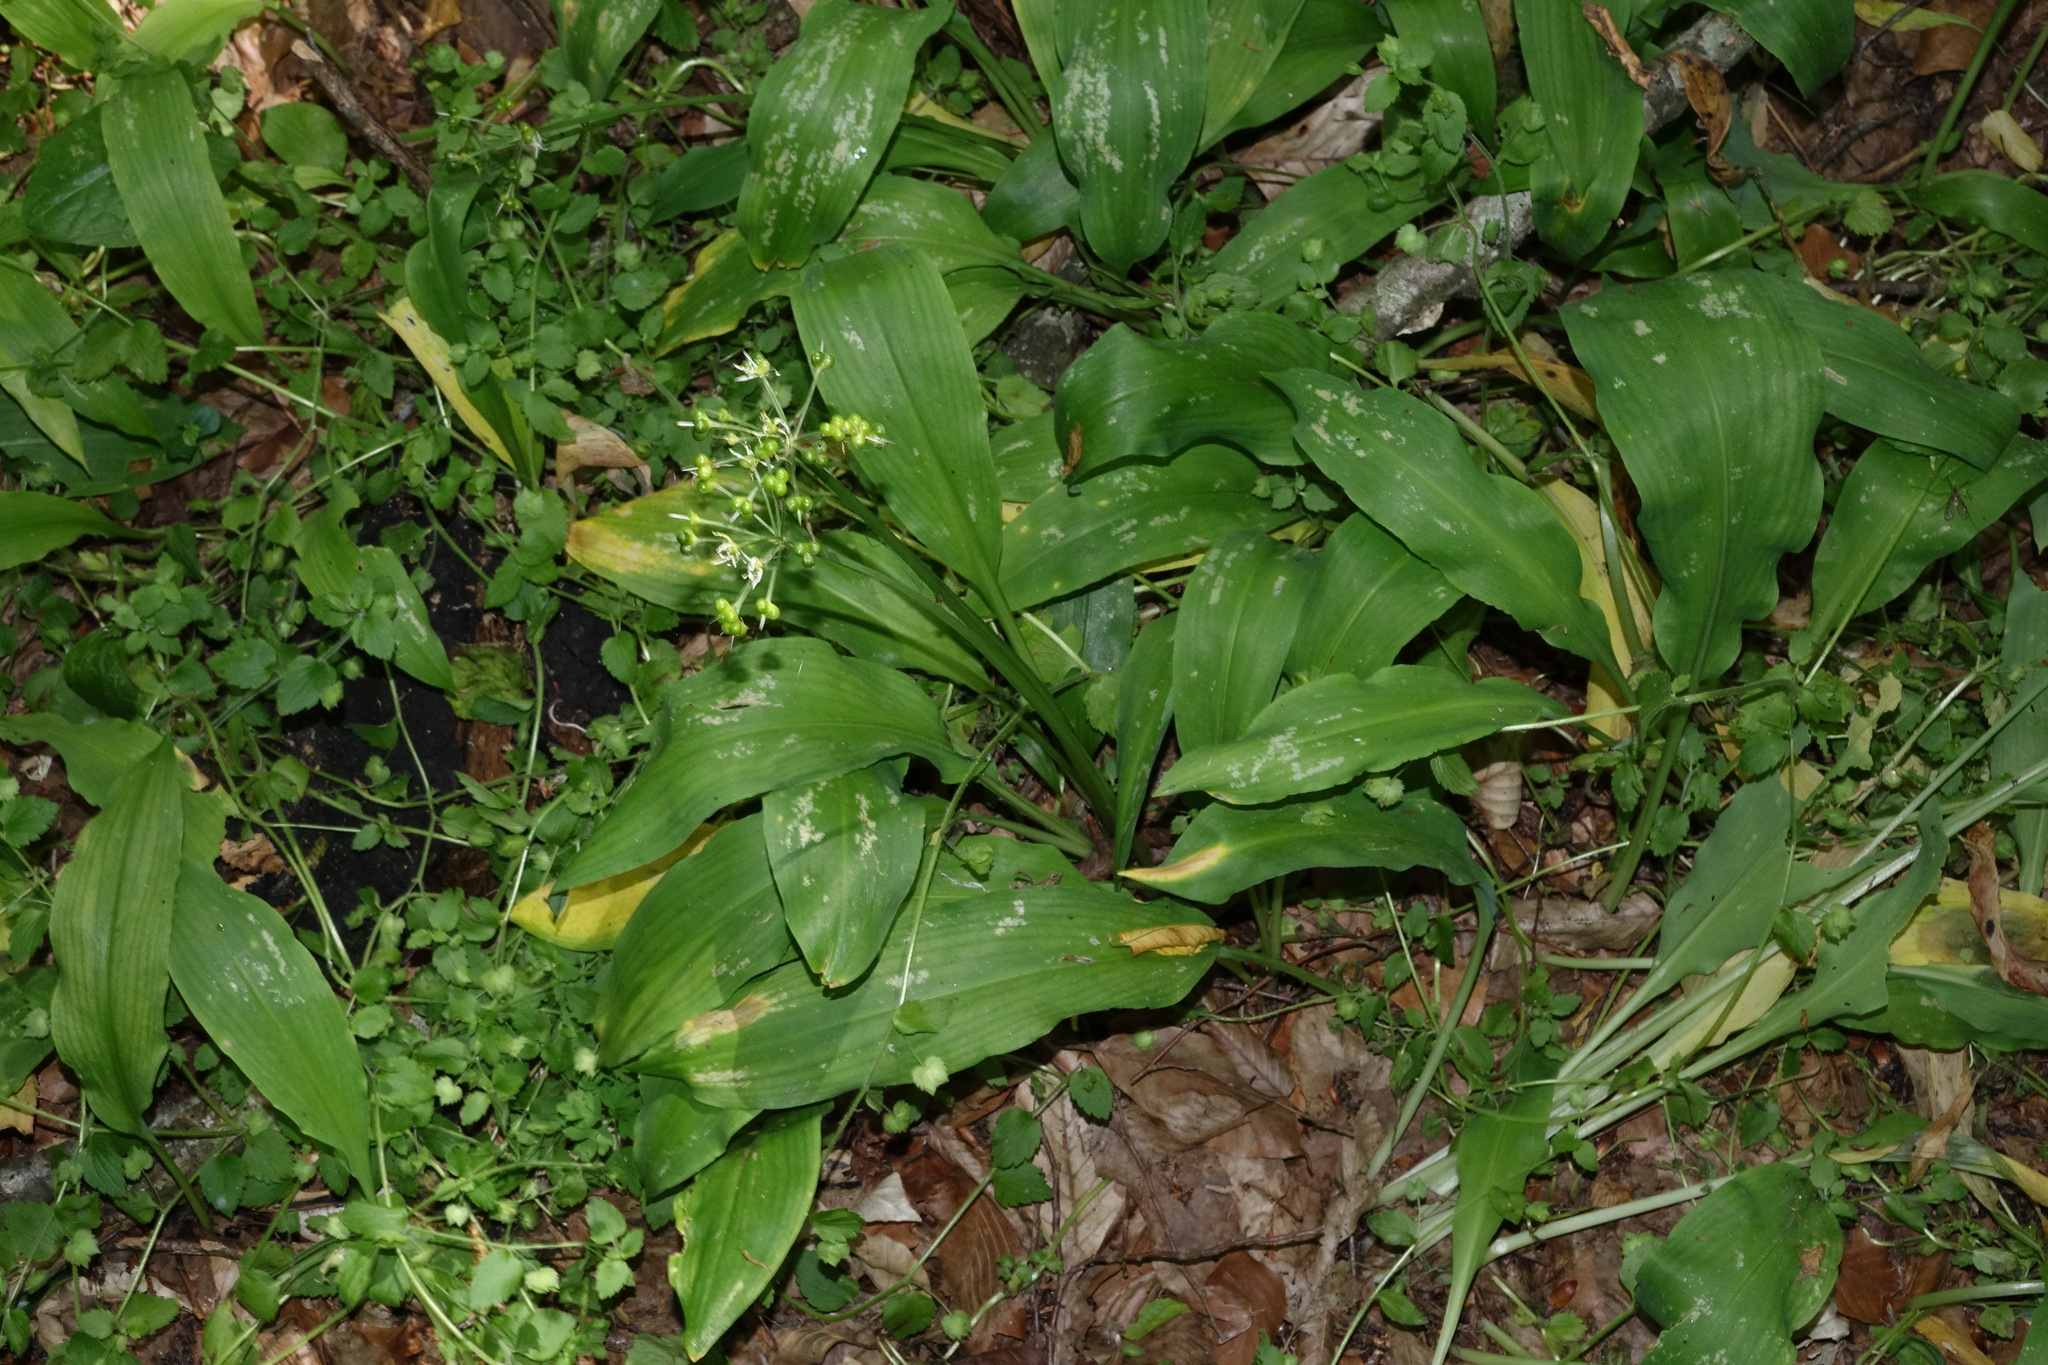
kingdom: Plantae
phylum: Tracheophyta
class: Liliopsida
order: Asparagales
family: Amaryllidaceae
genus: Allium
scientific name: Allium ursinum
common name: Ramsons
